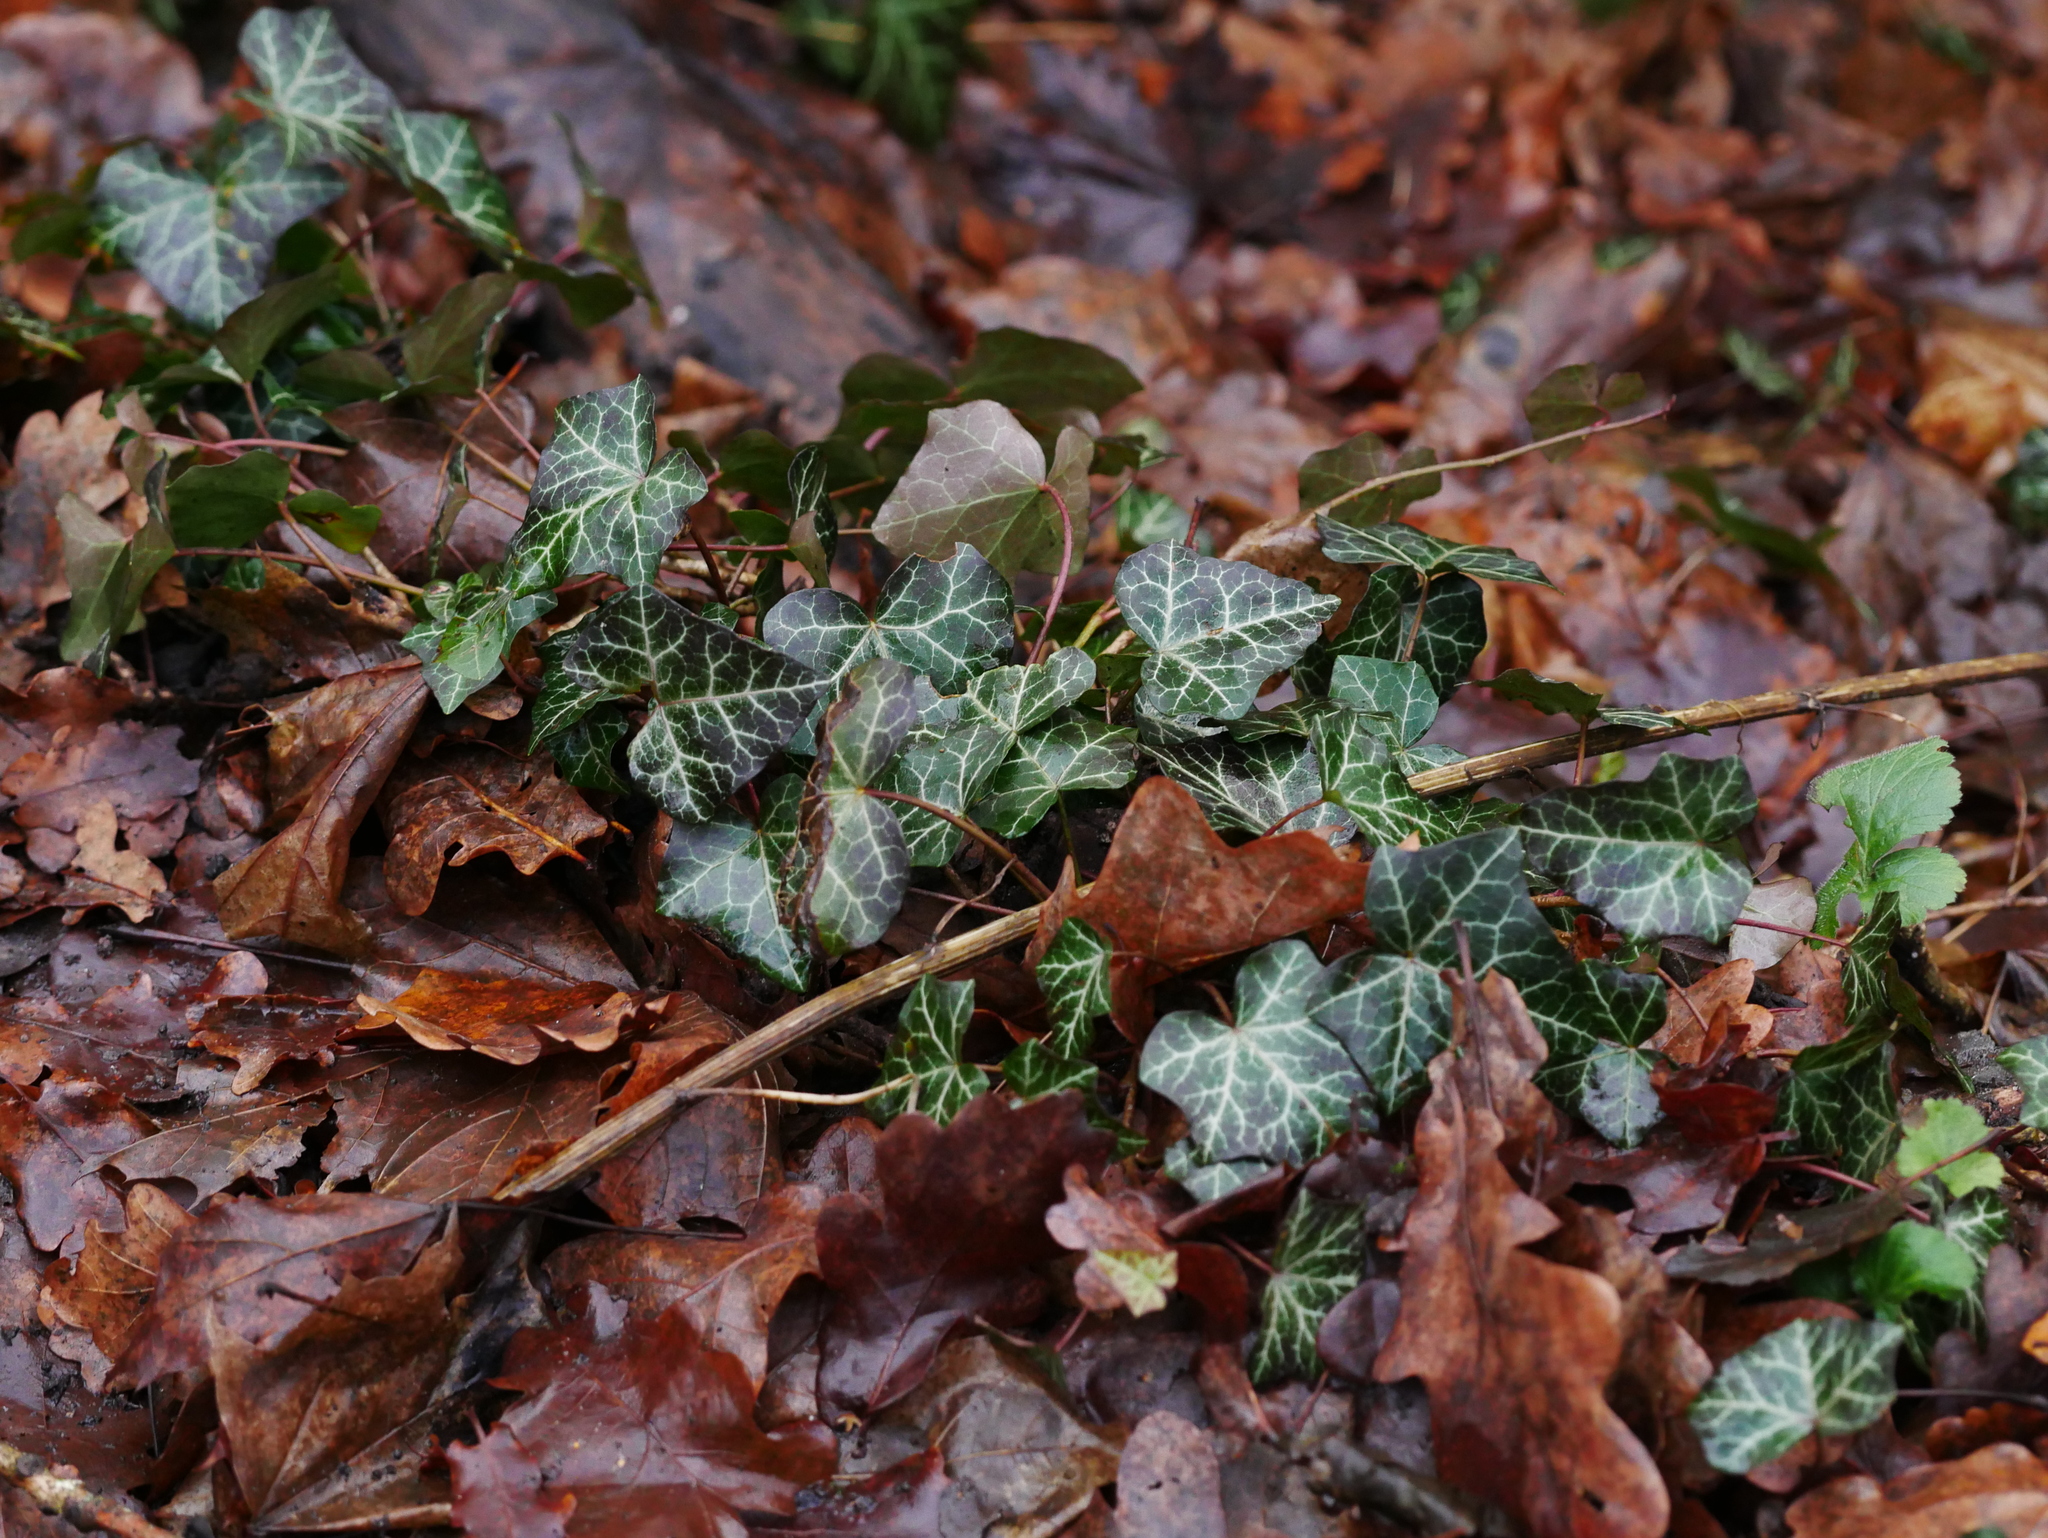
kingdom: Plantae
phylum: Tracheophyta
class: Magnoliopsida
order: Apiales
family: Araliaceae
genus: Hedera
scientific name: Hedera helix
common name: Ivy
